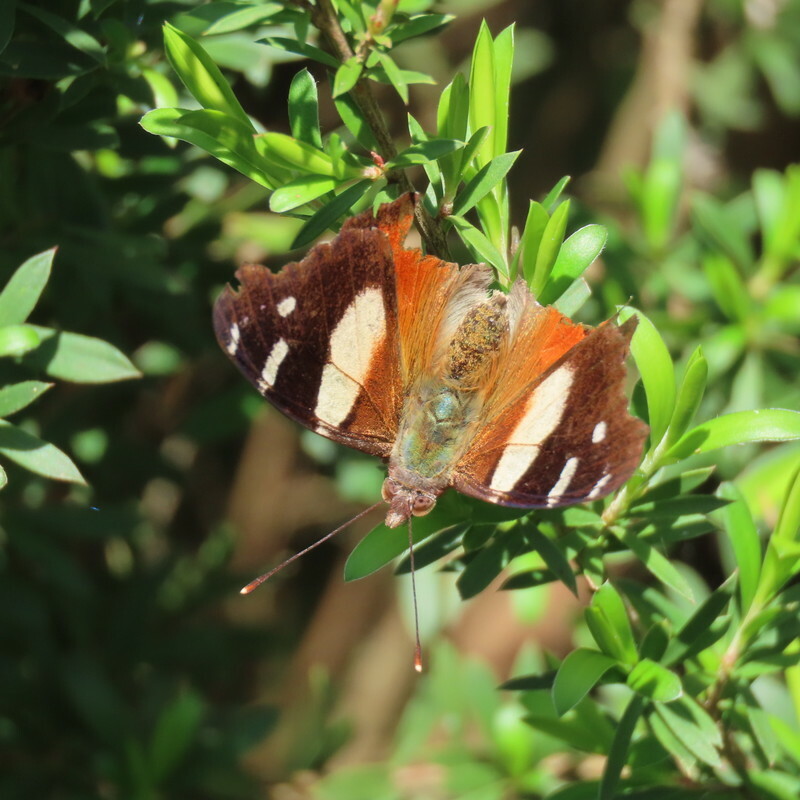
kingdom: Animalia
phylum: Arthropoda
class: Insecta
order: Lepidoptera
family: Nymphalidae
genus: Vanessa
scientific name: Vanessa itea
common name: Yellow admiral
